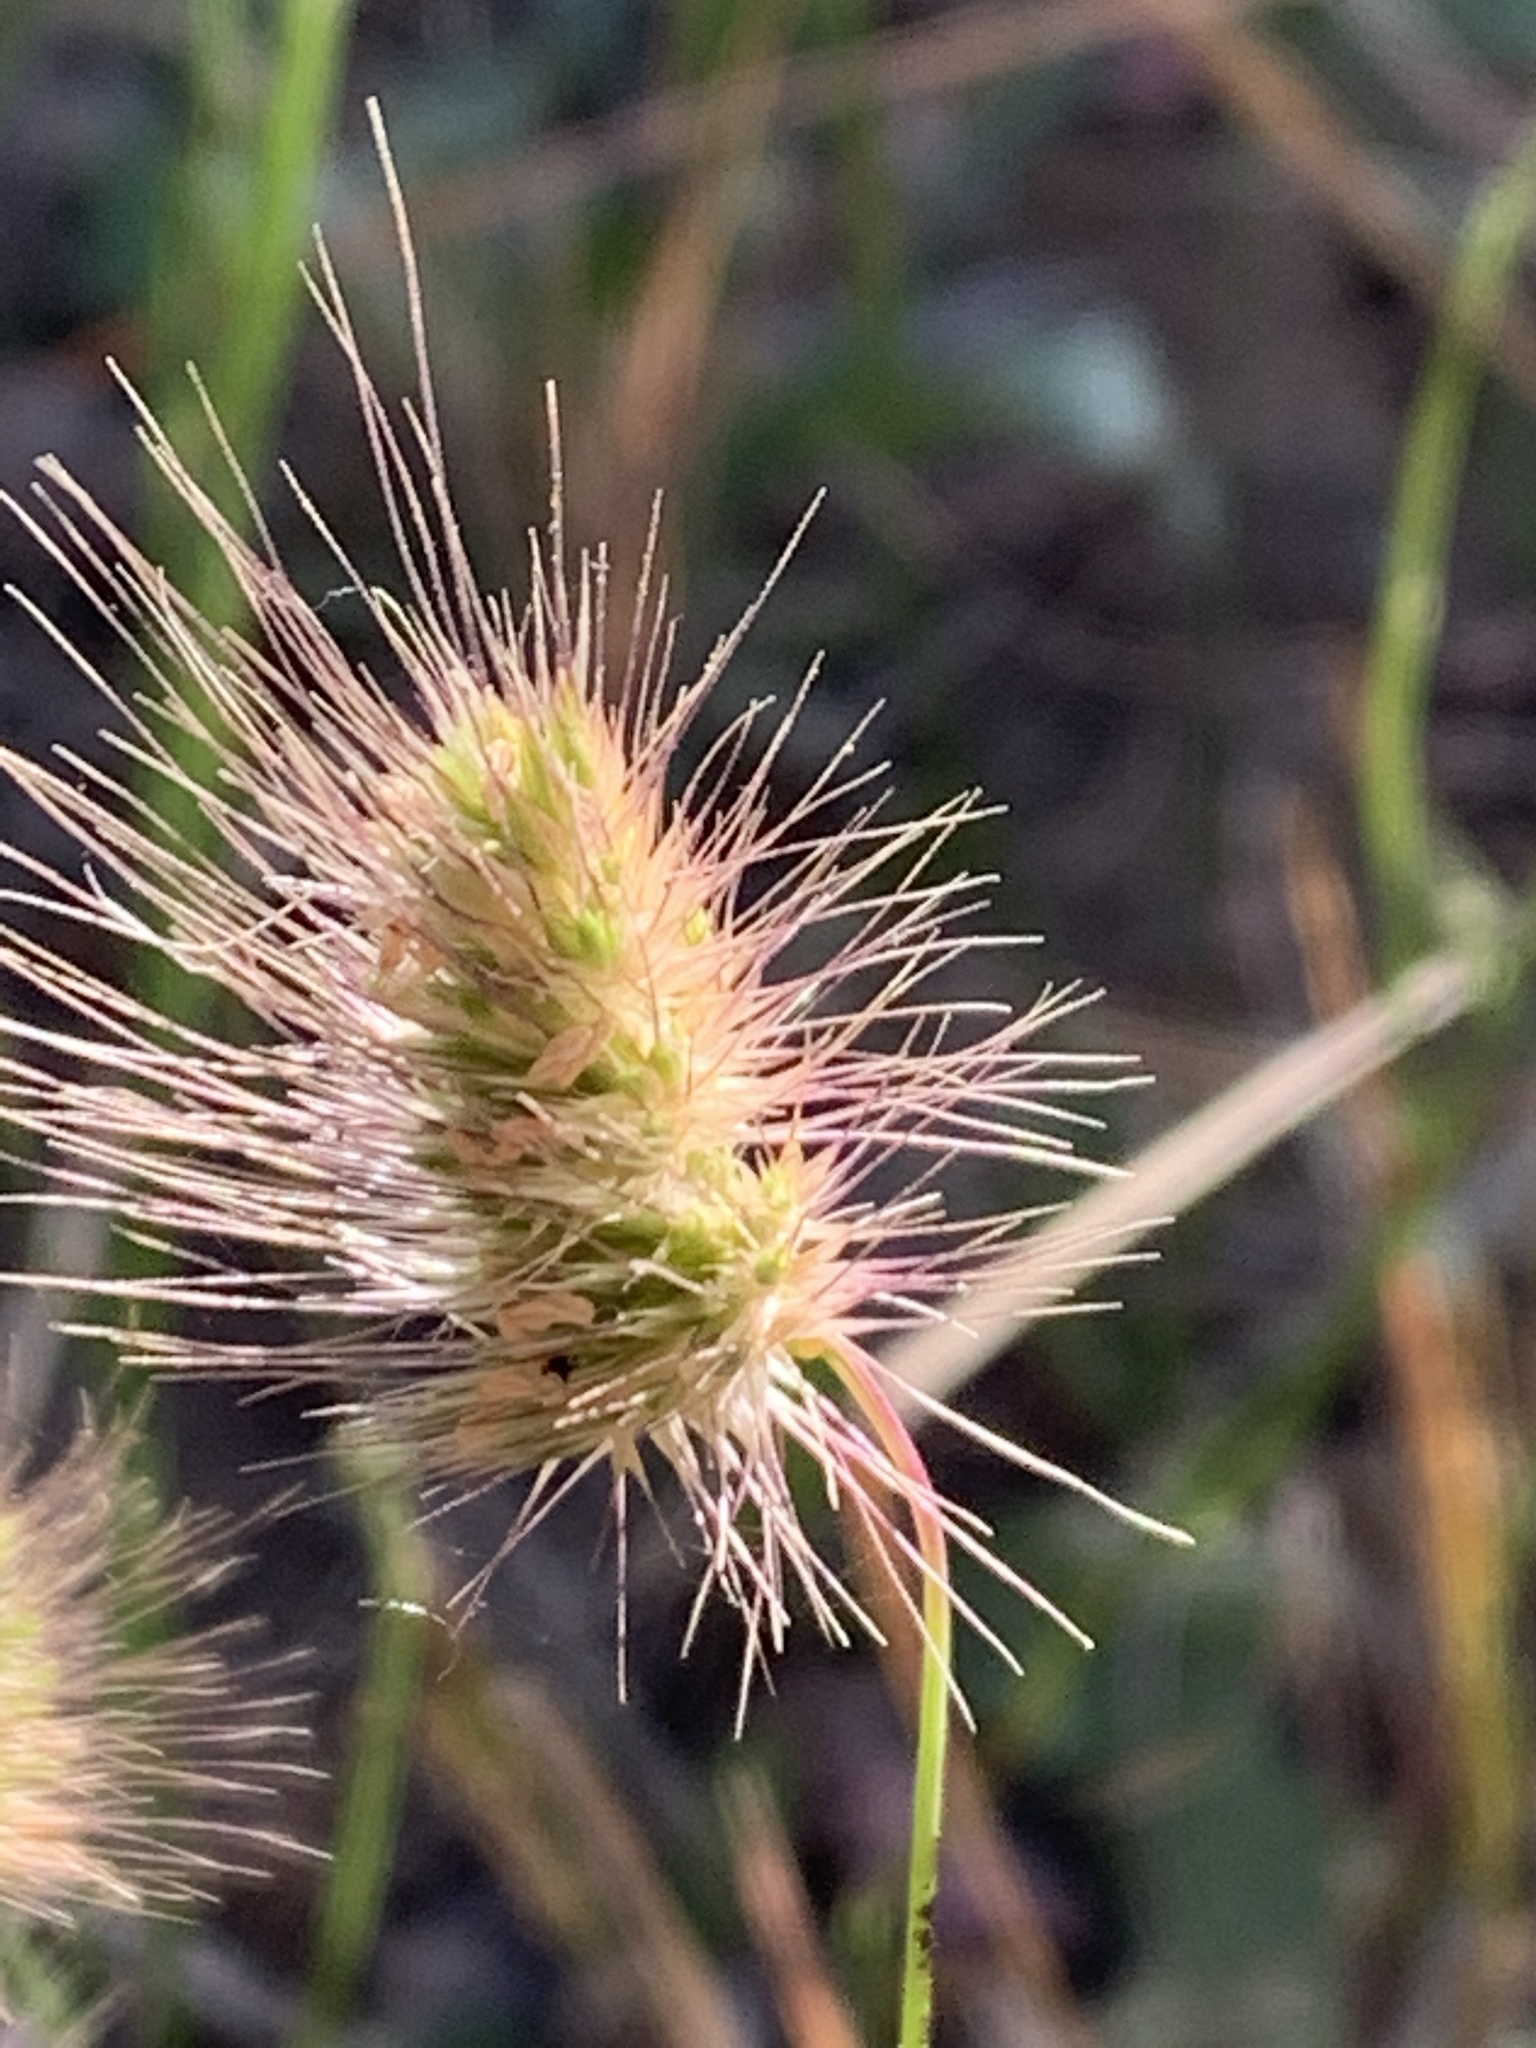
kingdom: Plantae
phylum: Tracheophyta
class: Liliopsida
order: Poales
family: Poaceae
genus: Cynosurus
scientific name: Cynosurus echinatus
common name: Rough dog's-tail
